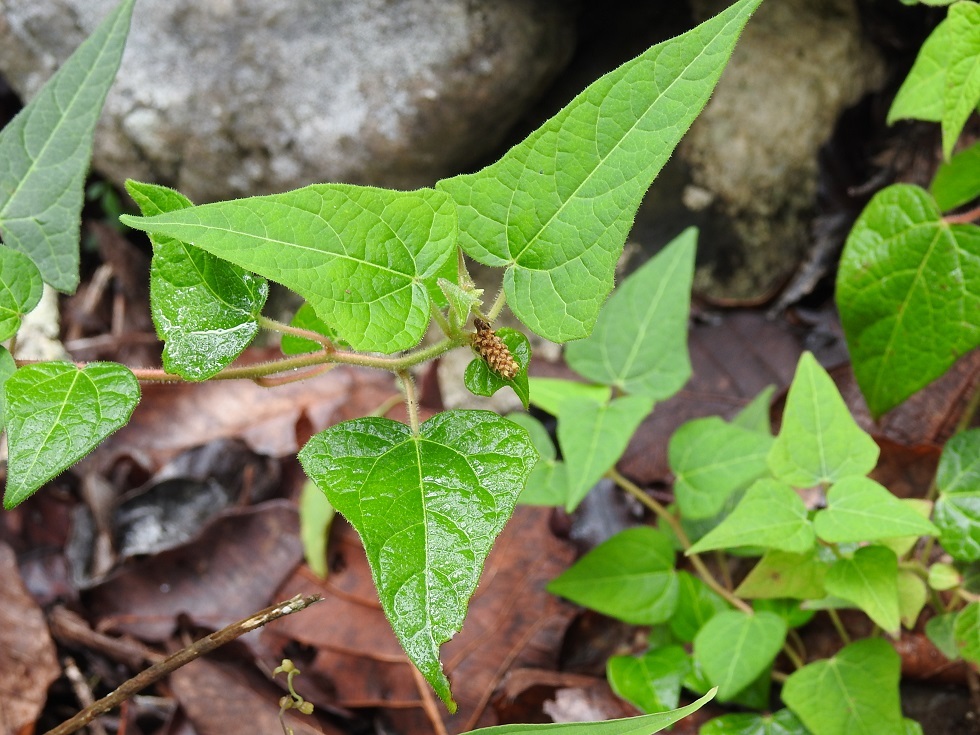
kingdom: Plantae
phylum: Tracheophyta
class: Magnoliopsida
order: Malpighiales
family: Euphorbiaceae
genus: Dalembertia
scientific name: Dalembertia triangularis
